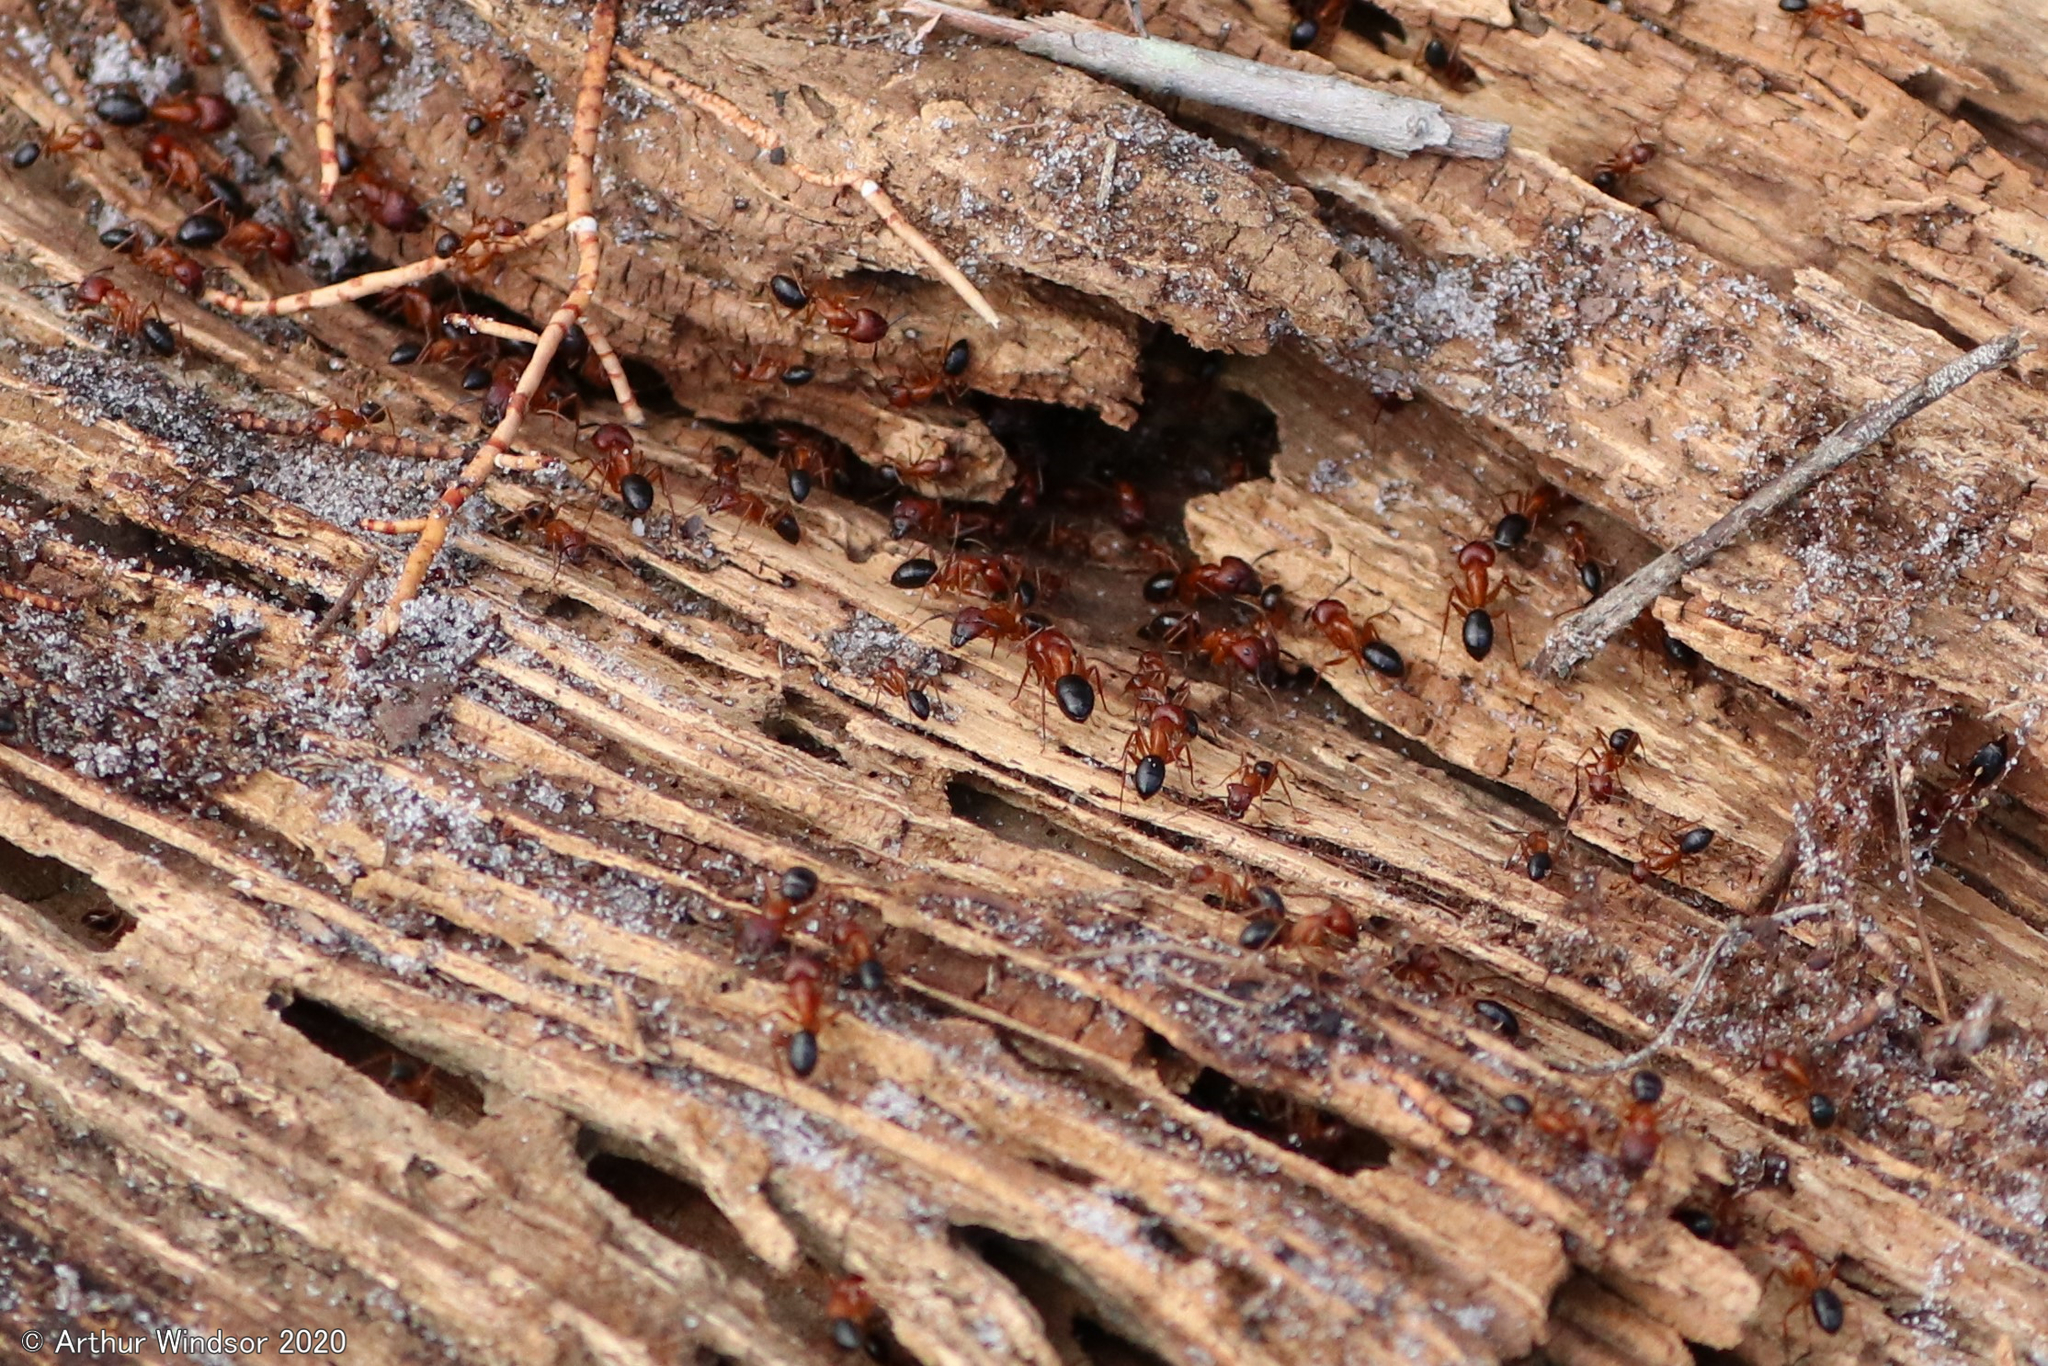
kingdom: Animalia
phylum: Arthropoda
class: Insecta
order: Hymenoptera
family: Formicidae
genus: Camponotus
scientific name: Camponotus floridanus
